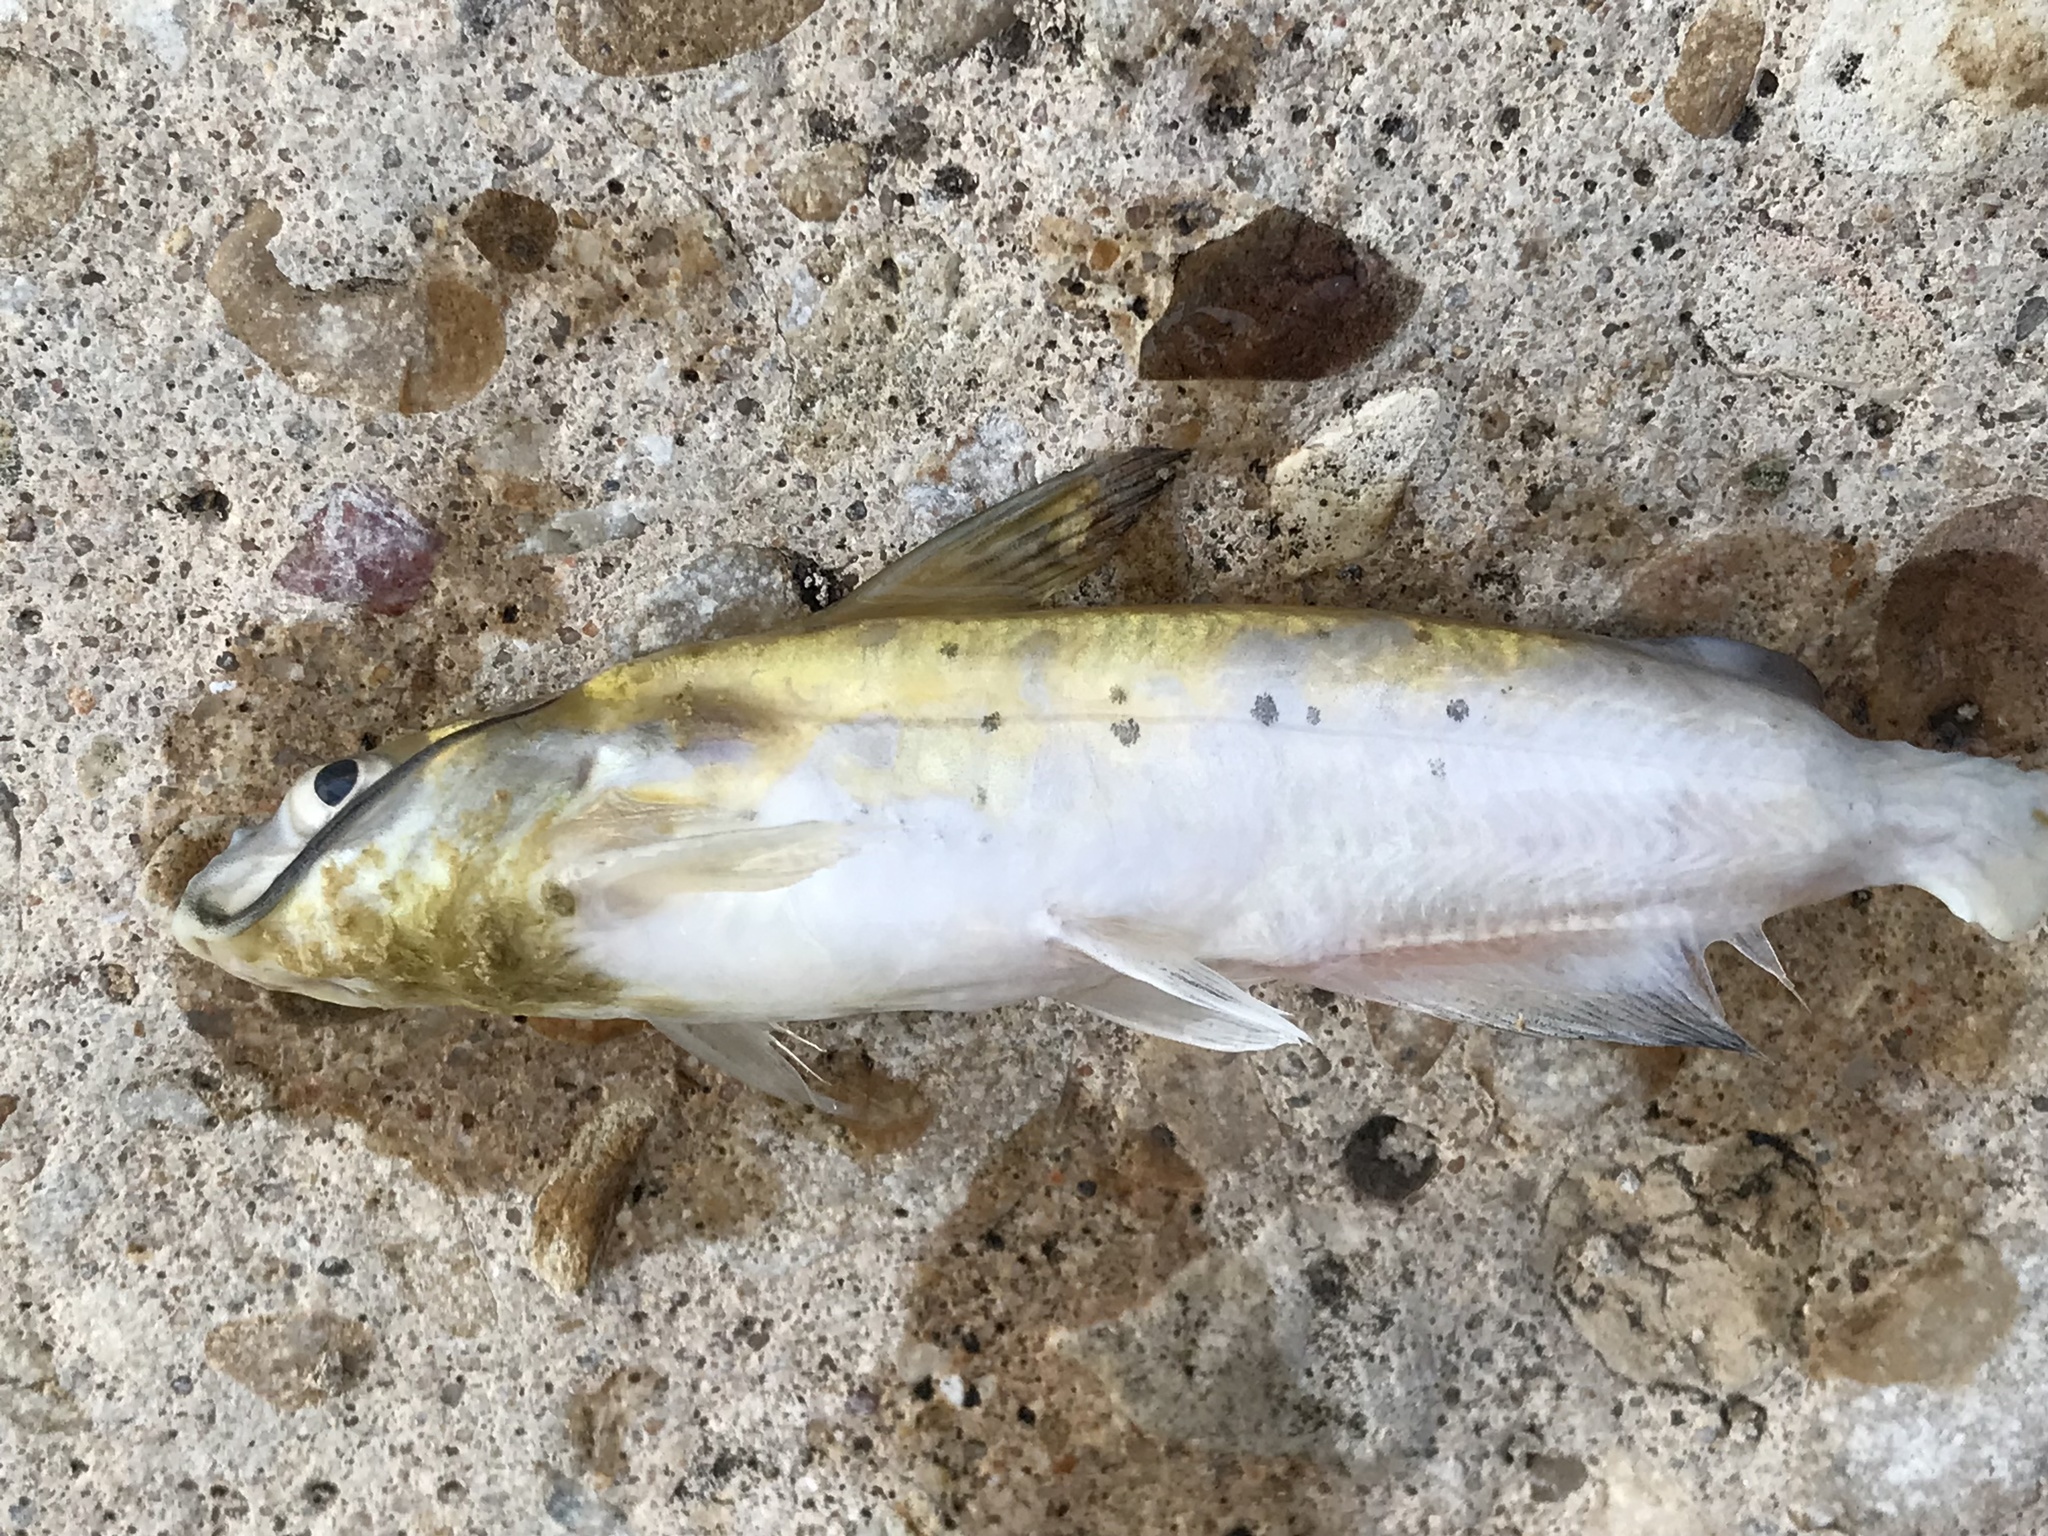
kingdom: Animalia
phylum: Chordata
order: Siluriformes
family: Ictaluridae
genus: Ictalurus
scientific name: Ictalurus punctatus
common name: Channel catfish
